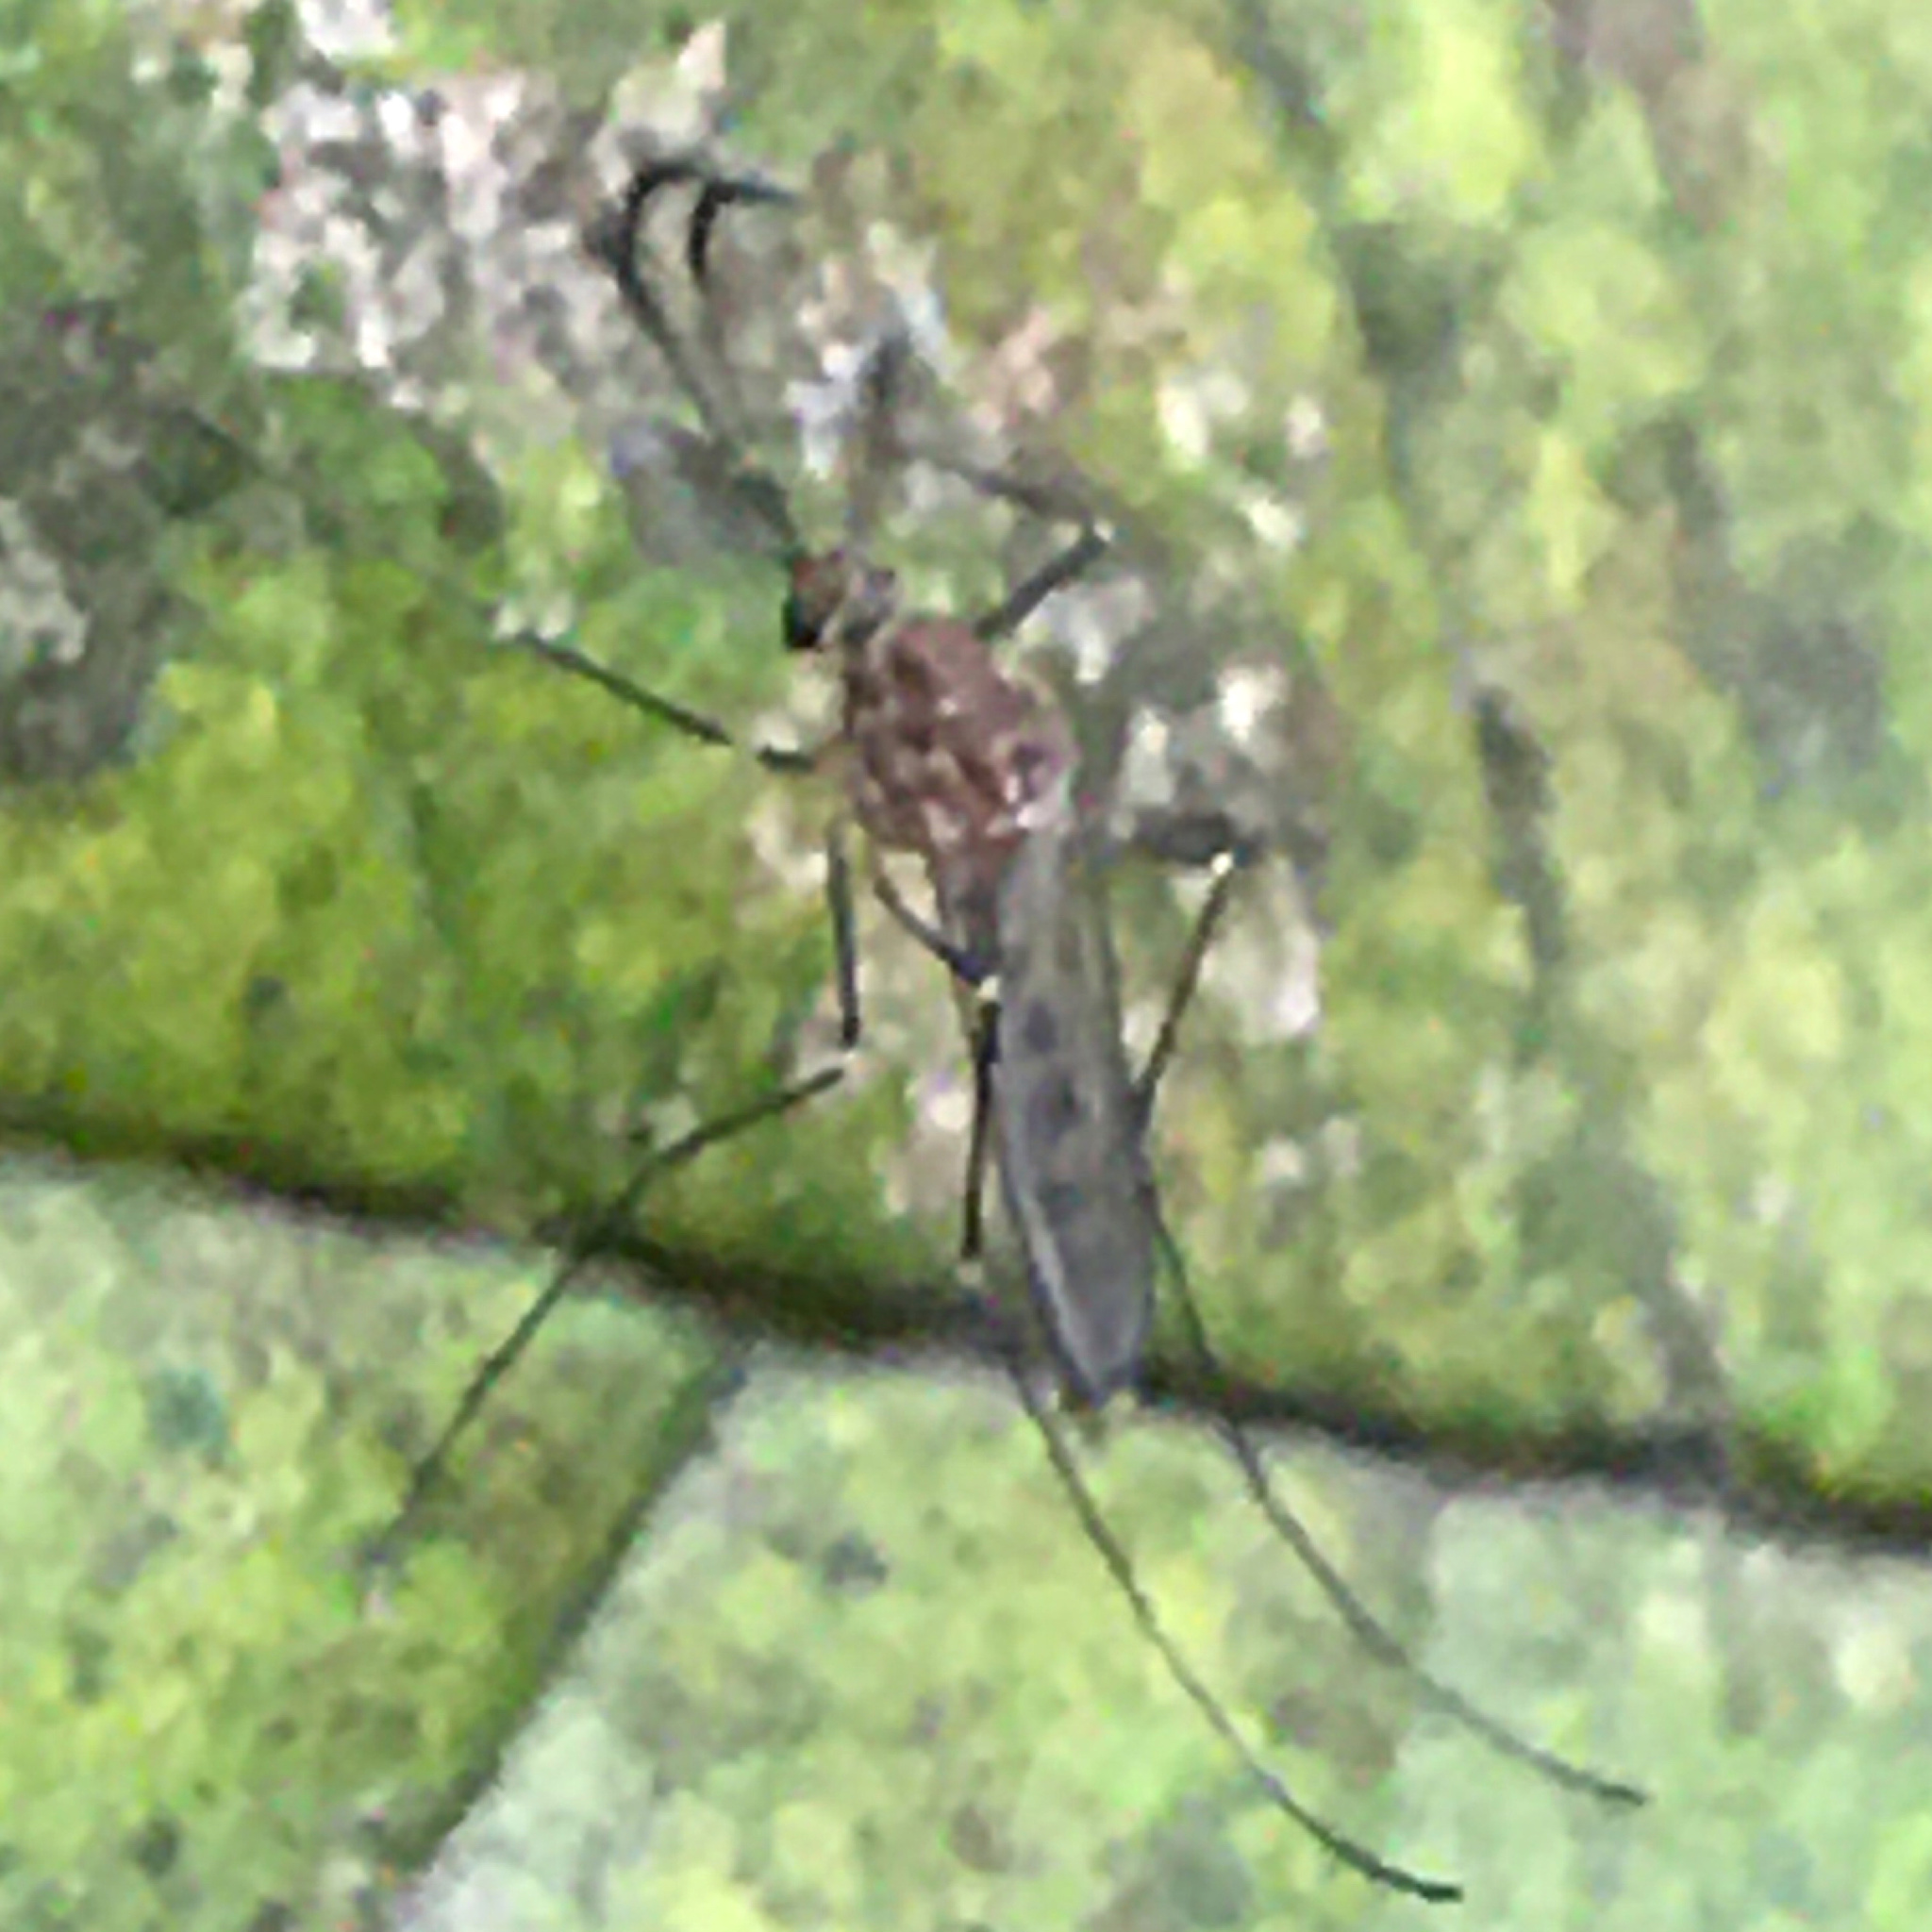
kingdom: Animalia
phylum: Arthropoda
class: Insecta
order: Diptera
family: Culicidae
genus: Culex
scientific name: Culex restuans
